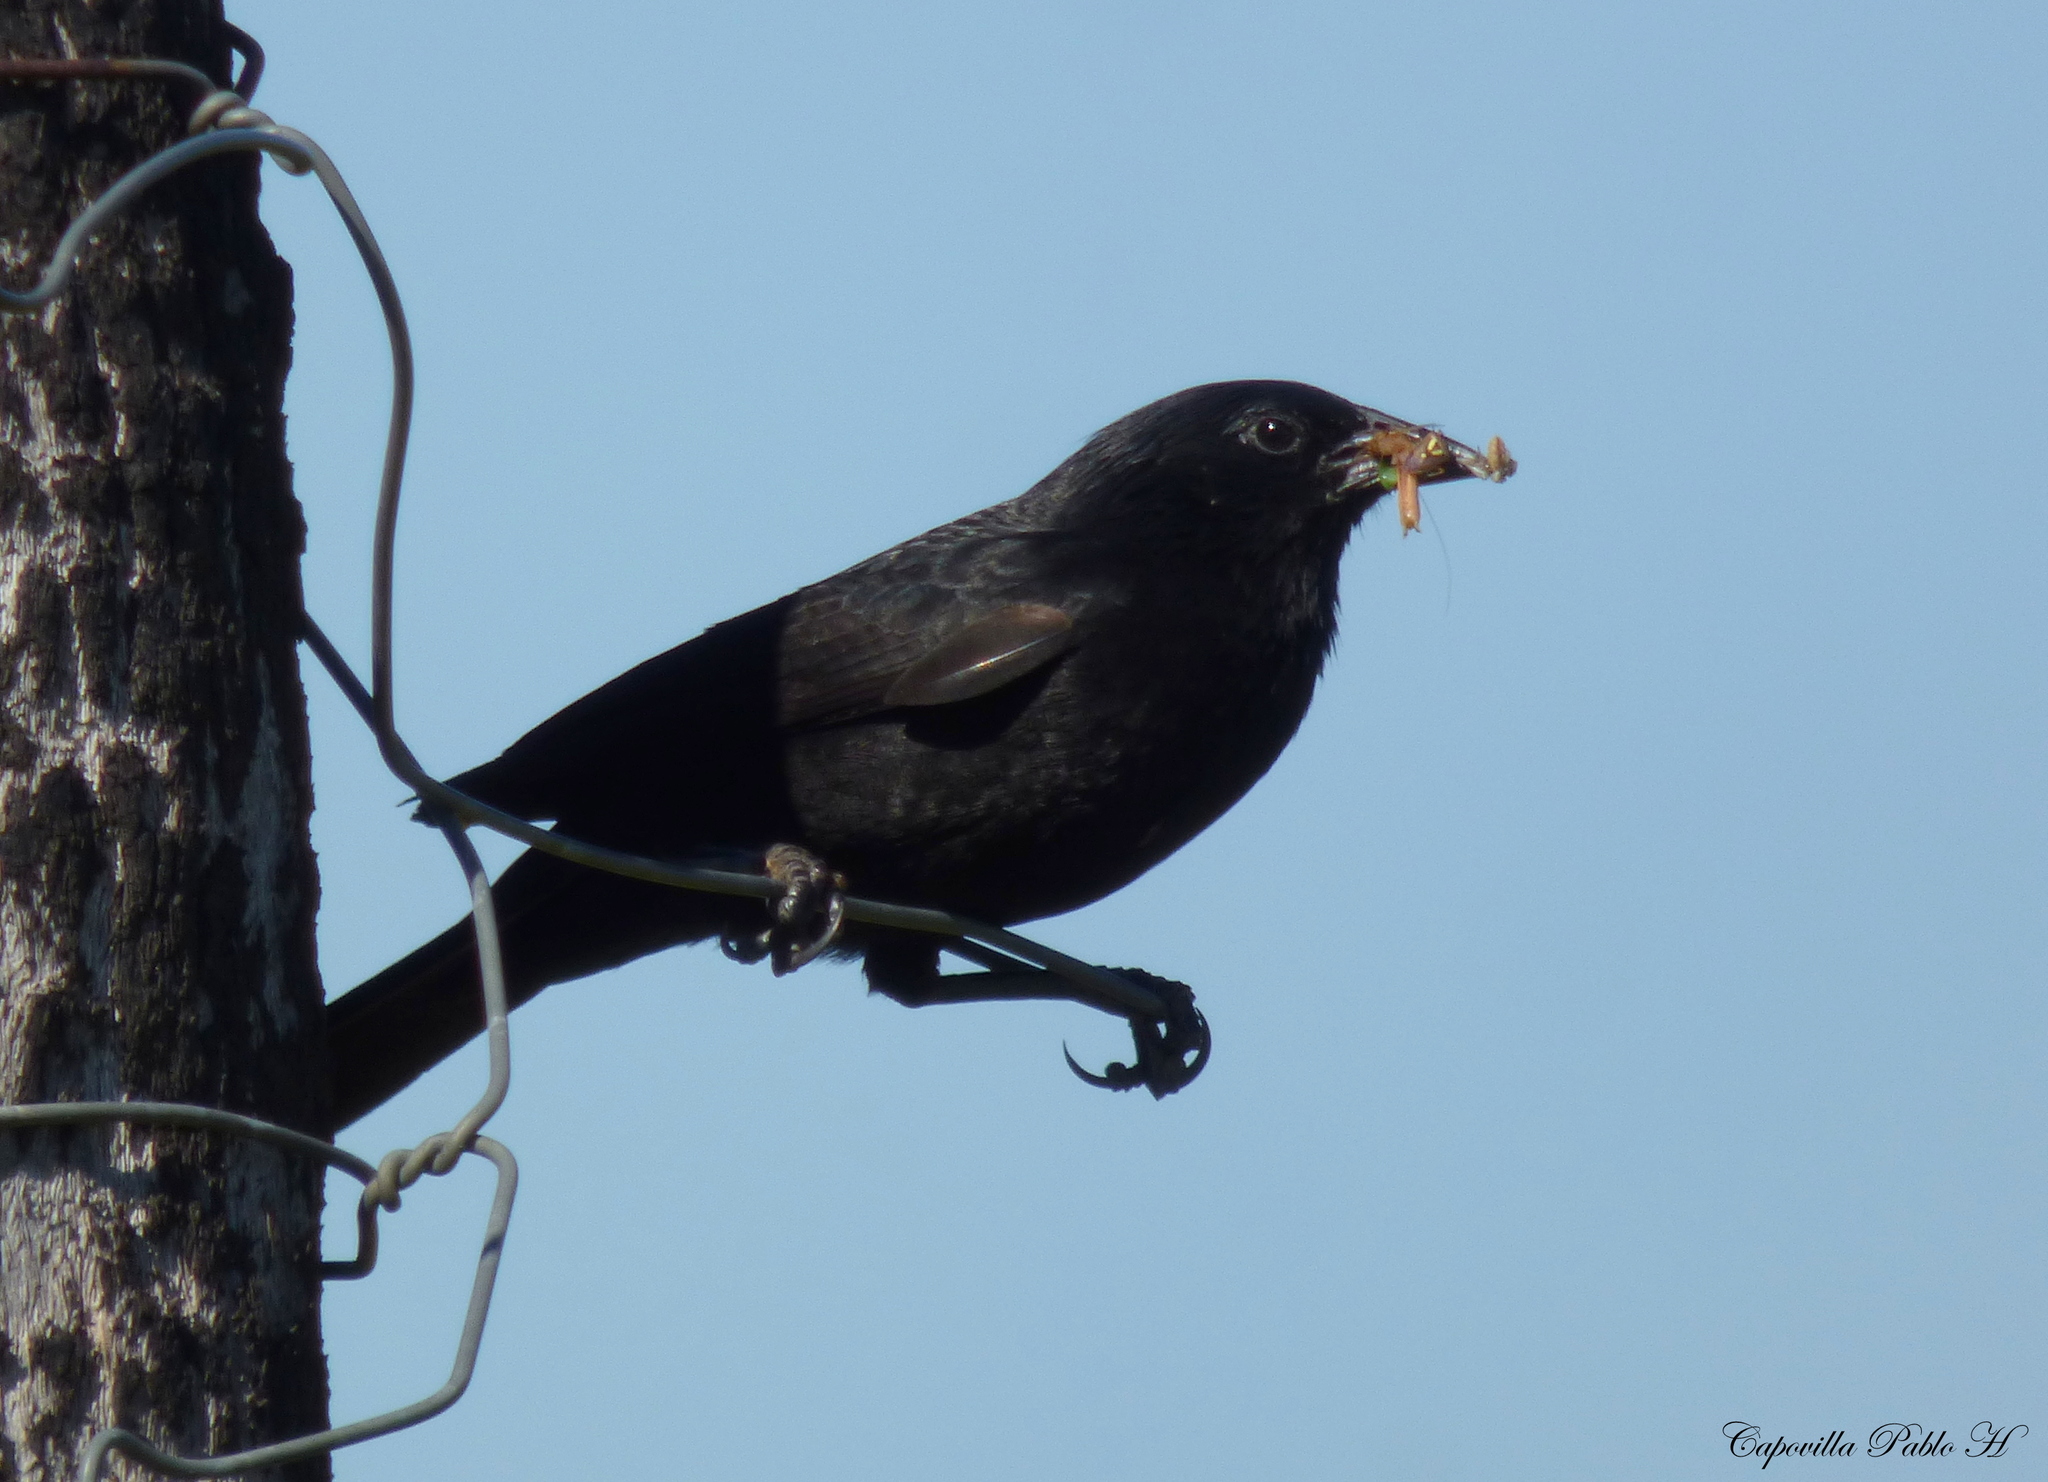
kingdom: Animalia
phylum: Chordata
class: Aves
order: Passeriformes
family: Icteridae
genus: Gnorimopsar
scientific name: Gnorimopsar chopi
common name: Chopi blackbird
